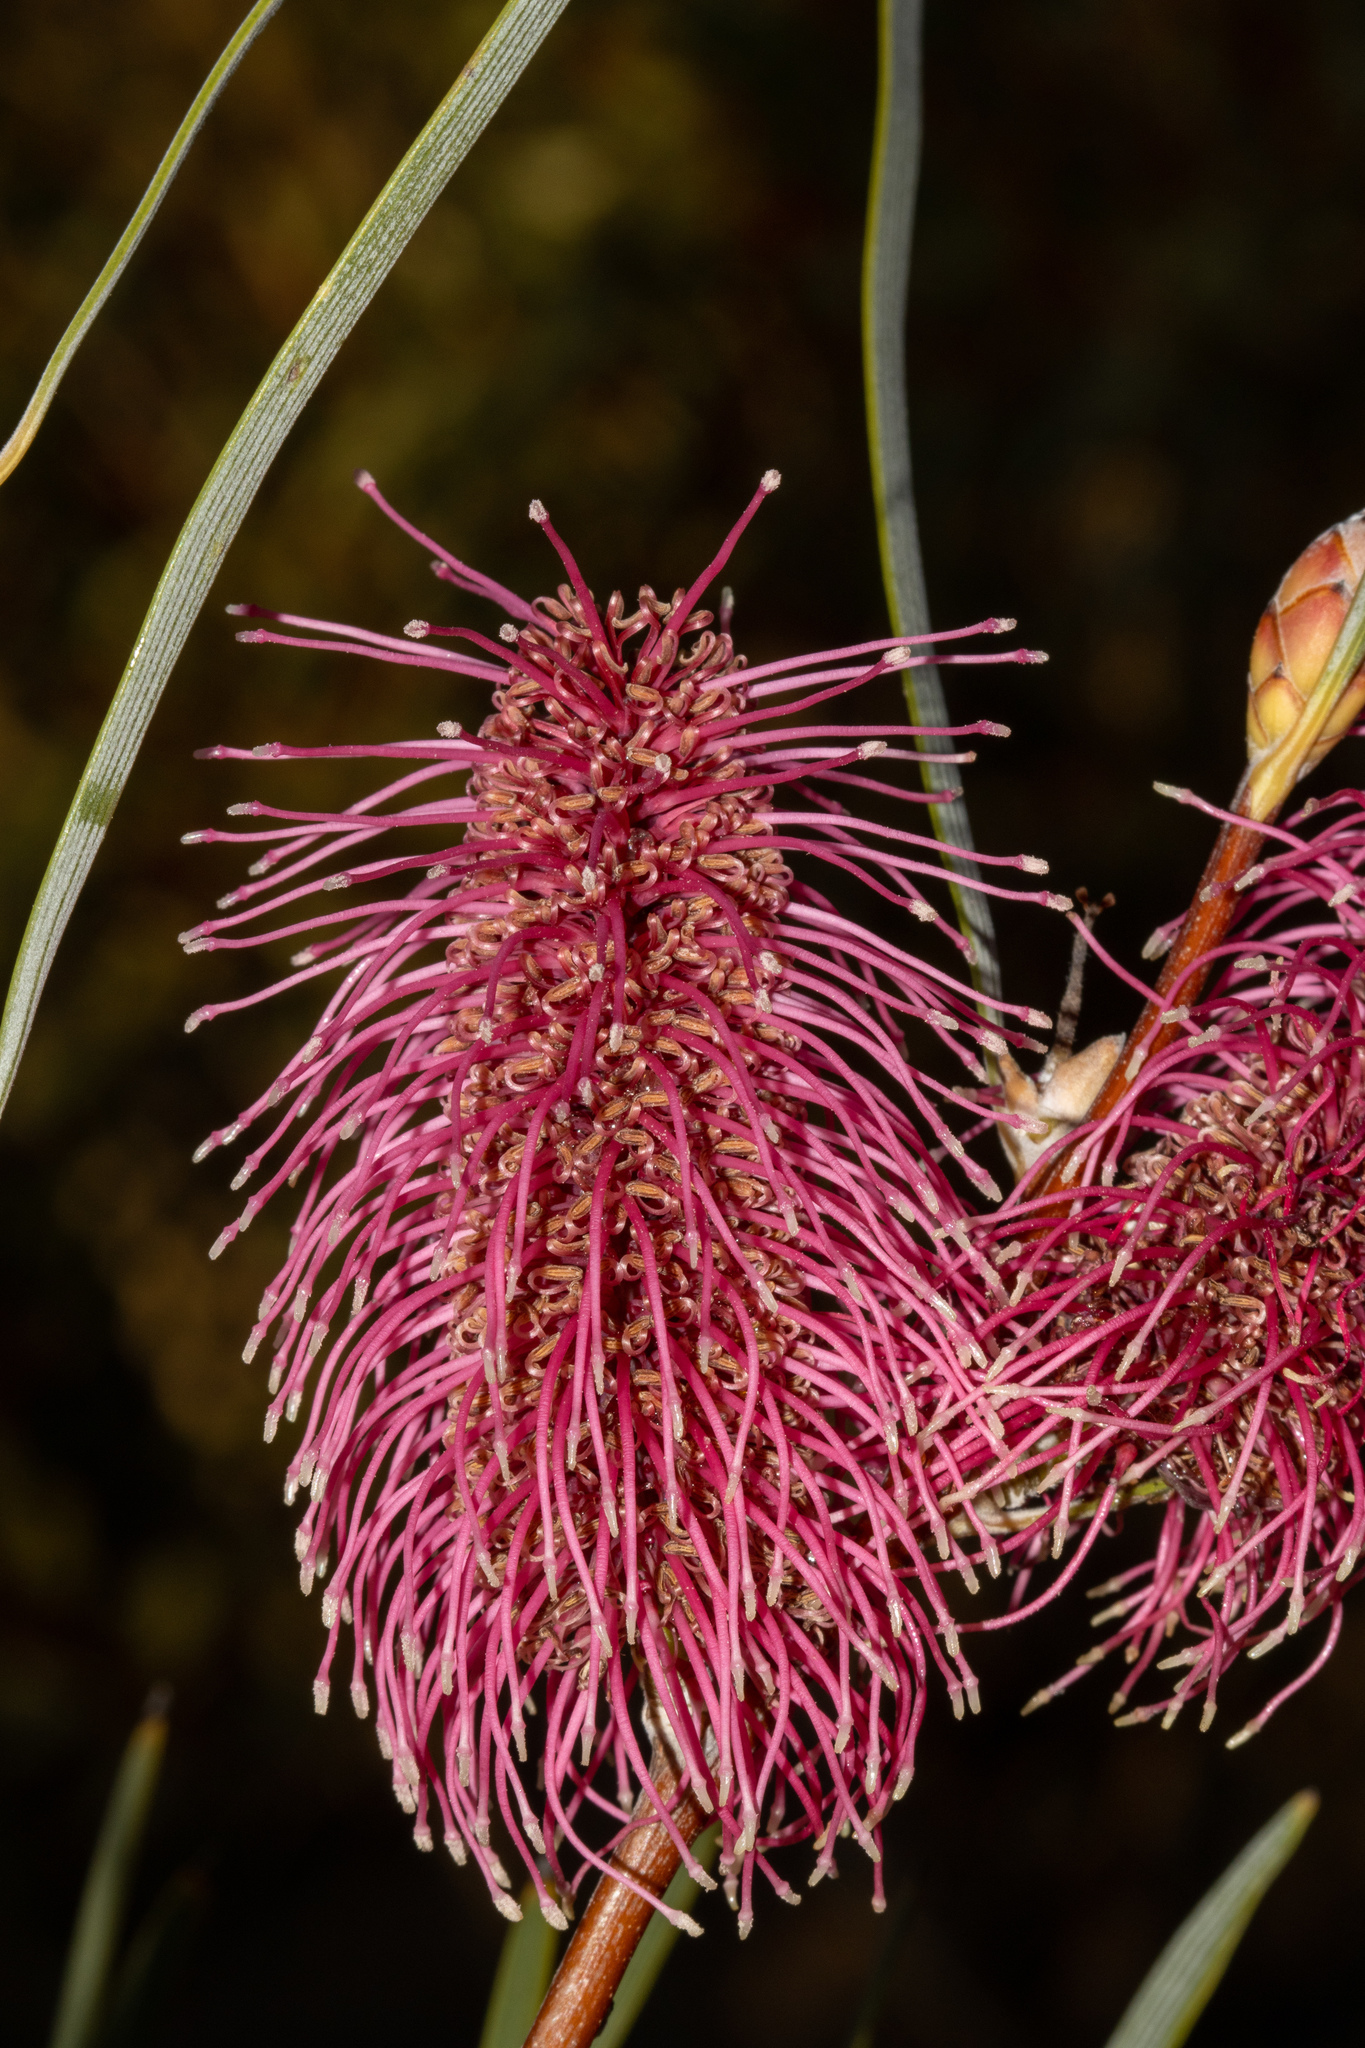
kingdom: Plantae
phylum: Tracheophyta
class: Magnoliopsida
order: Proteales
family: Proteaceae
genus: Hakea
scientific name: Hakea francisiana
